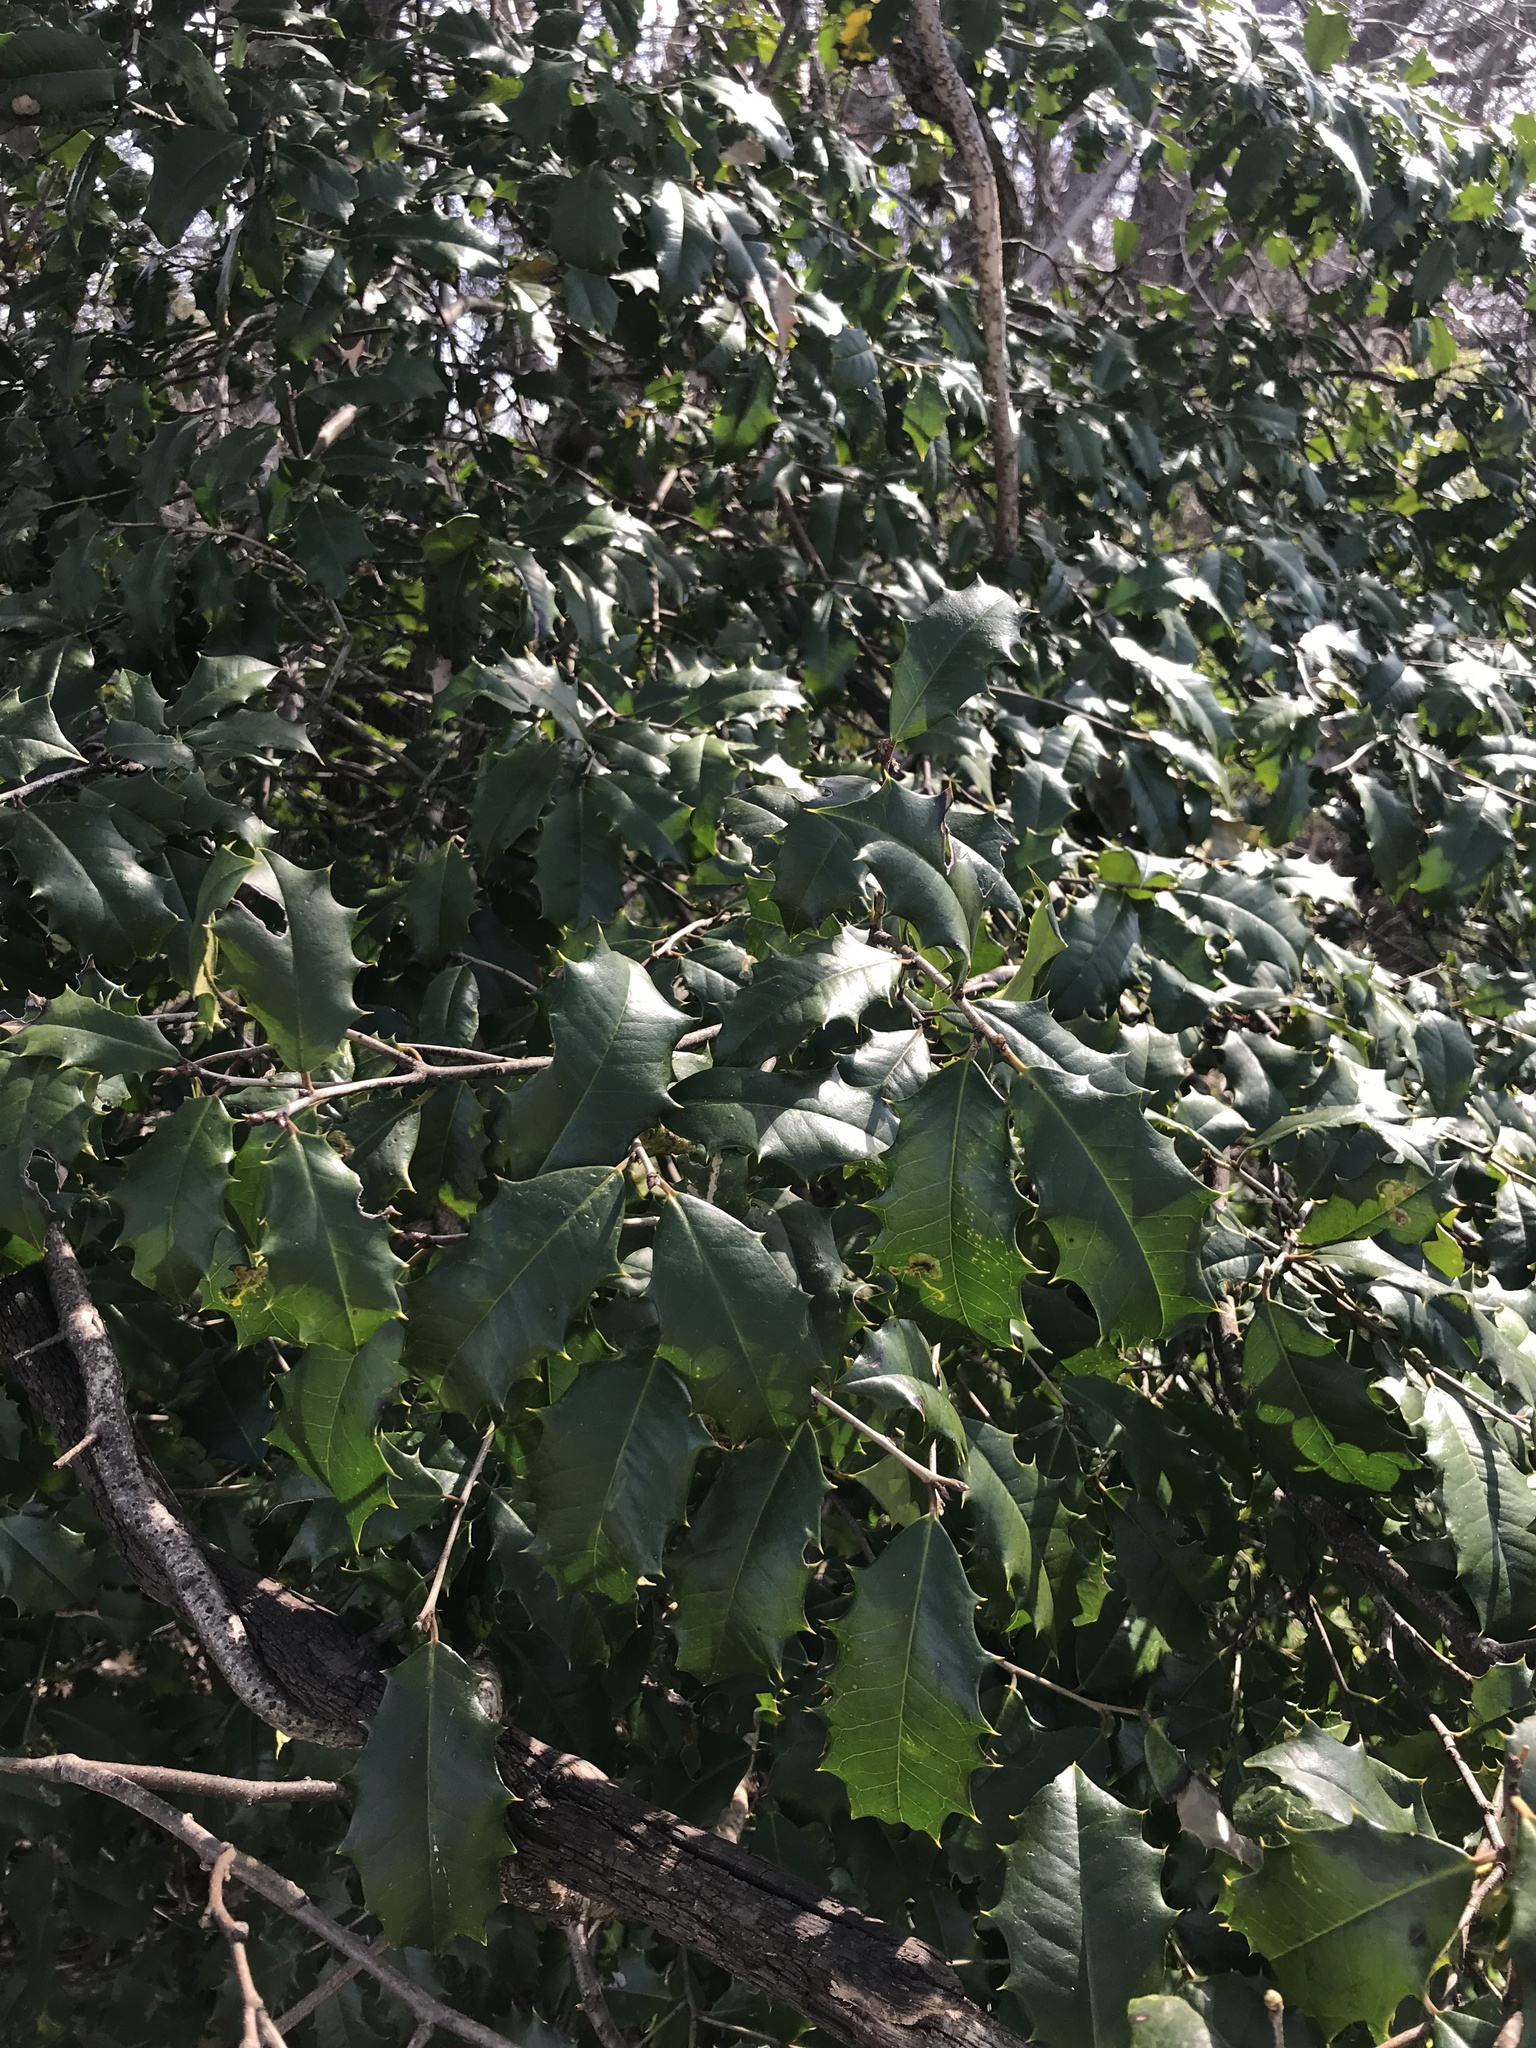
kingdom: Plantae
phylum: Tracheophyta
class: Magnoliopsida
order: Aquifoliales
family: Aquifoliaceae
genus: Ilex
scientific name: Ilex opaca
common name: American holly
